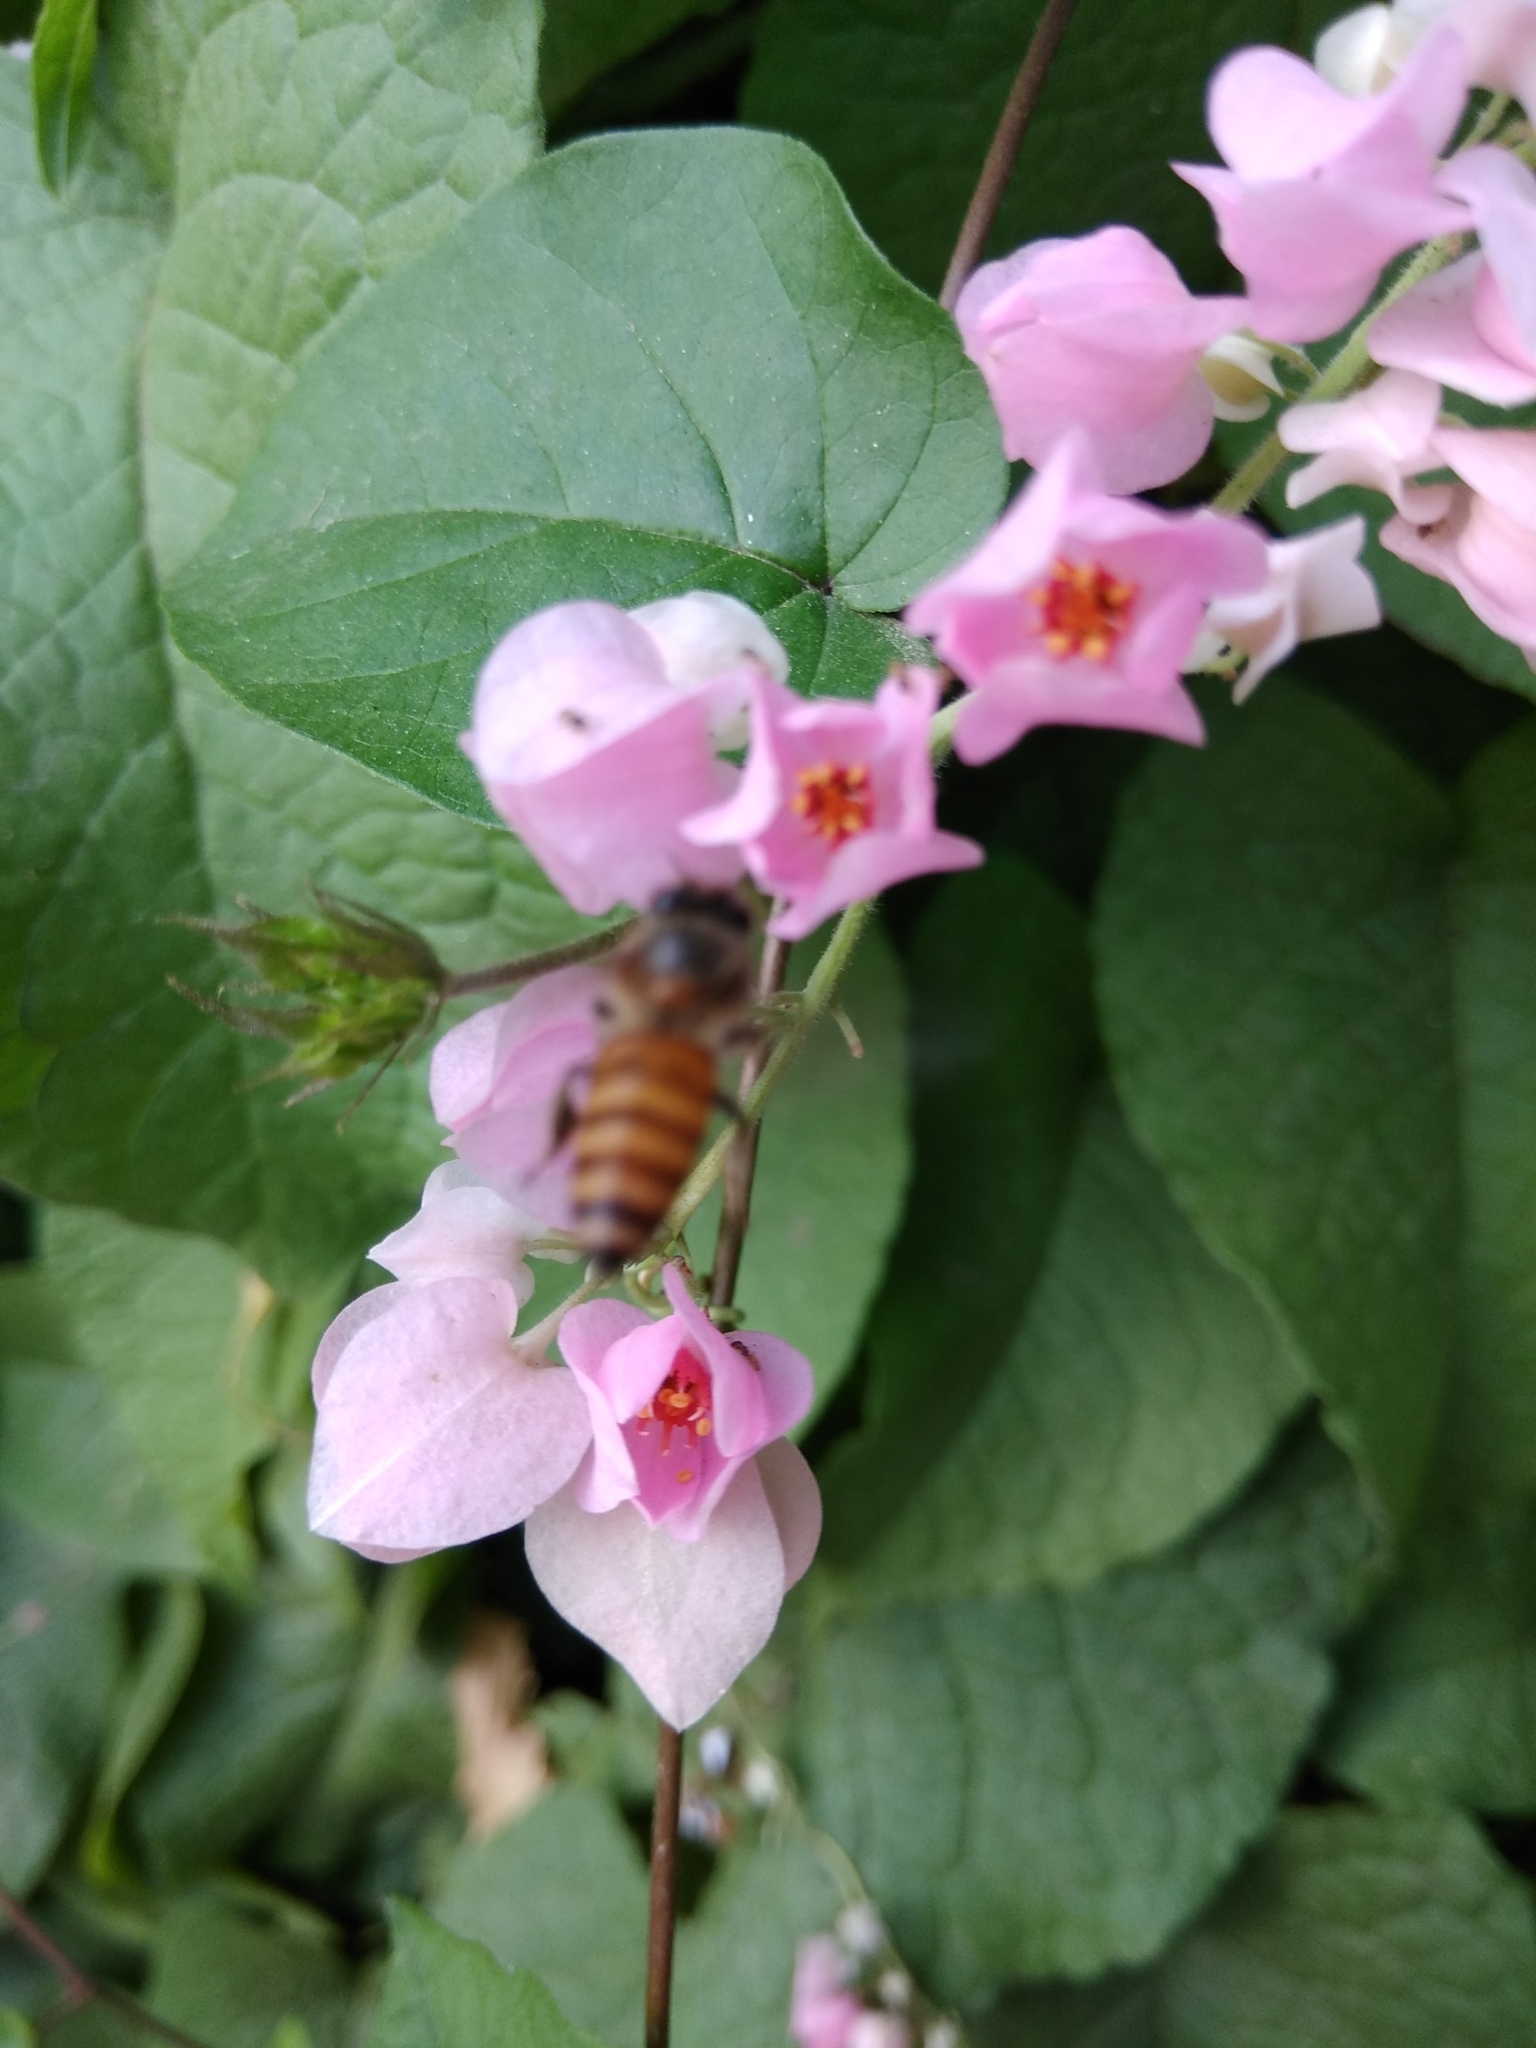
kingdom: Plantae
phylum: Tracheophyta
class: Magnoliopsida
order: Caryophyllales
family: Polygonaceae
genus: Antigonon
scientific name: Antigonon leptopus
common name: Coral vine
